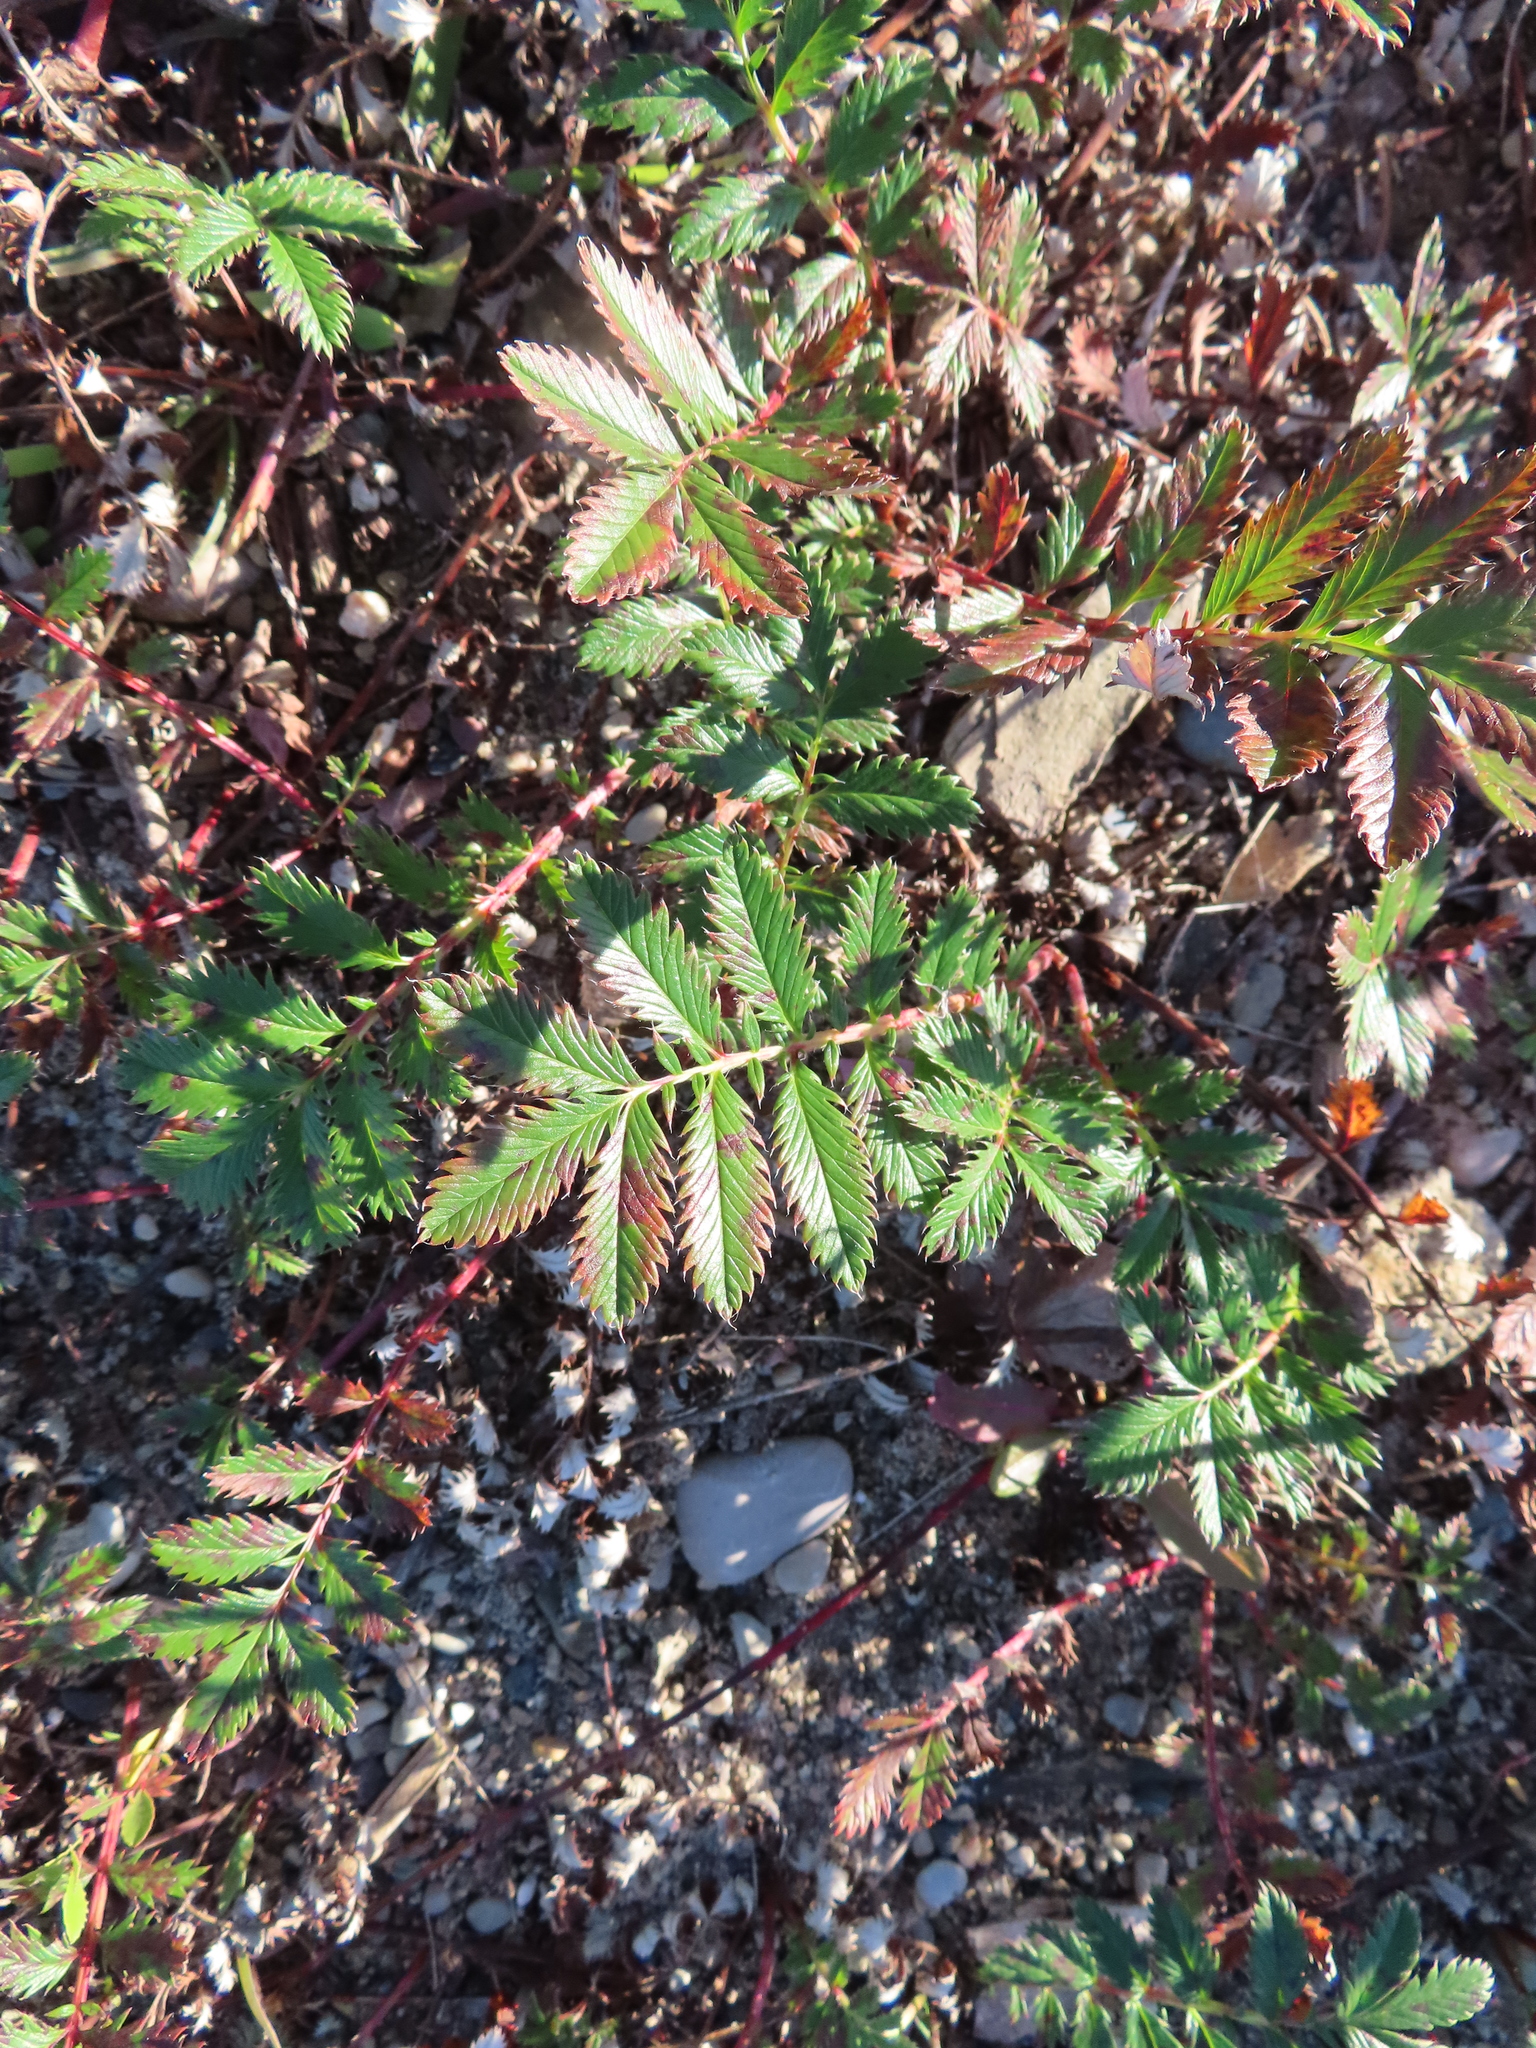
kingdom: Plantae
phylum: Tracheophyta
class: Magnoliopsida
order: Rosales
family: Rosaceae
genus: Argentina
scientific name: Argentina anserina
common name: Common silverweed
